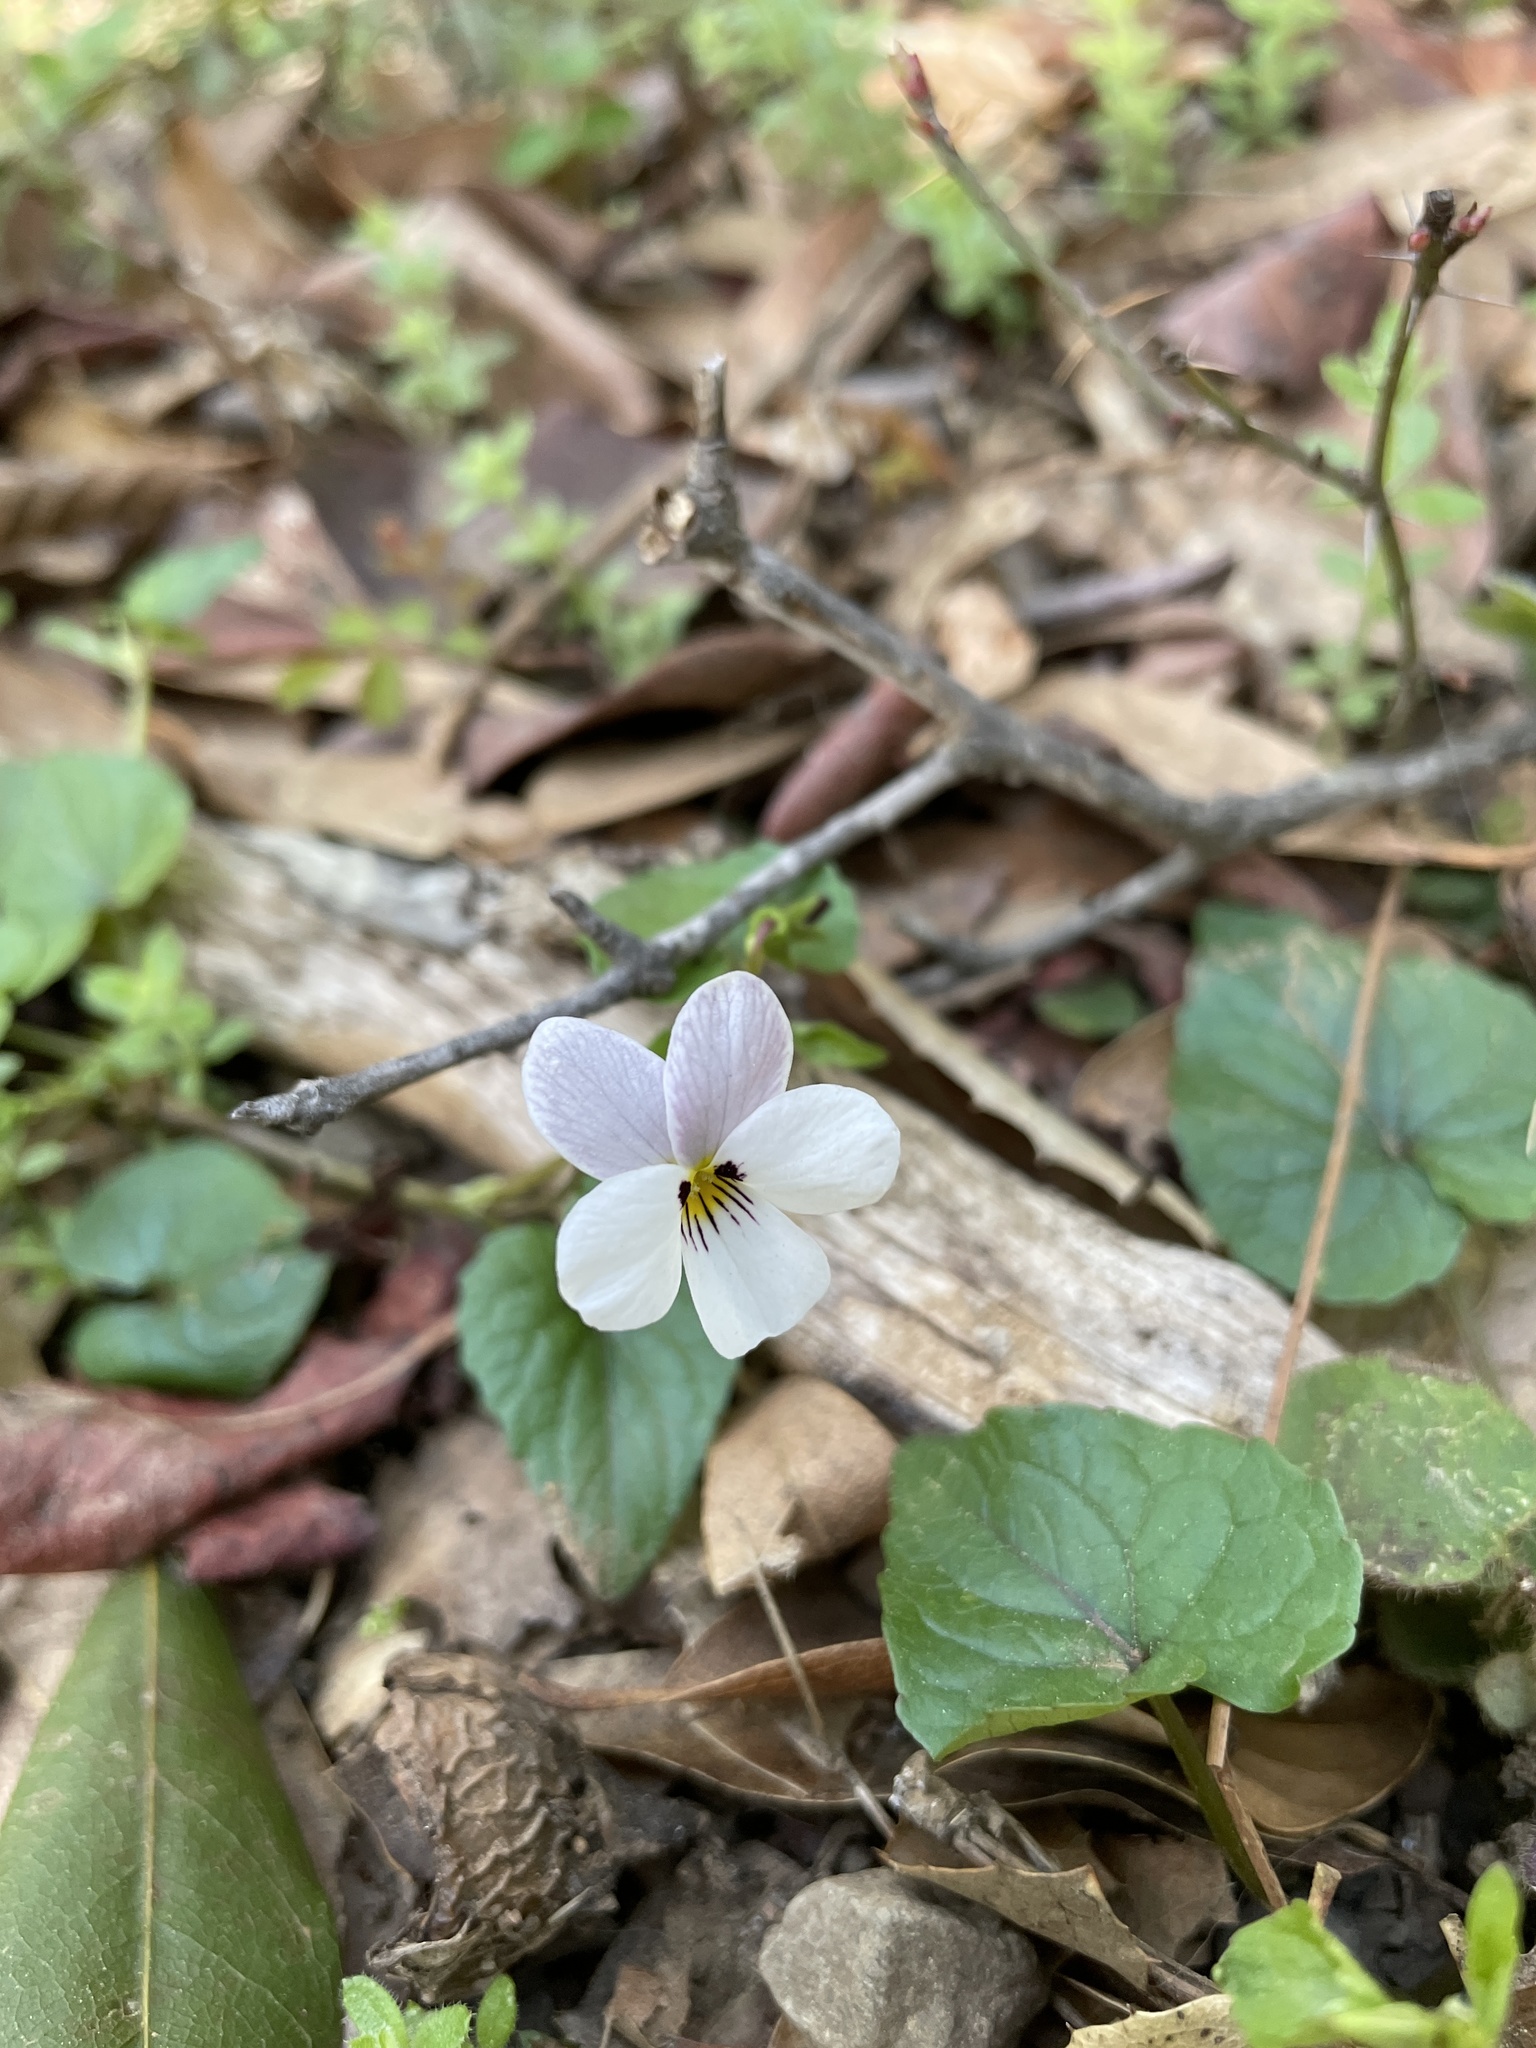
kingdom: Plantae
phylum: Tracheophyta
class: Magnoliopsida
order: Malpighiales
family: Violaceae
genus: Viola
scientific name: Viola ocellata
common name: Western heart's ease
